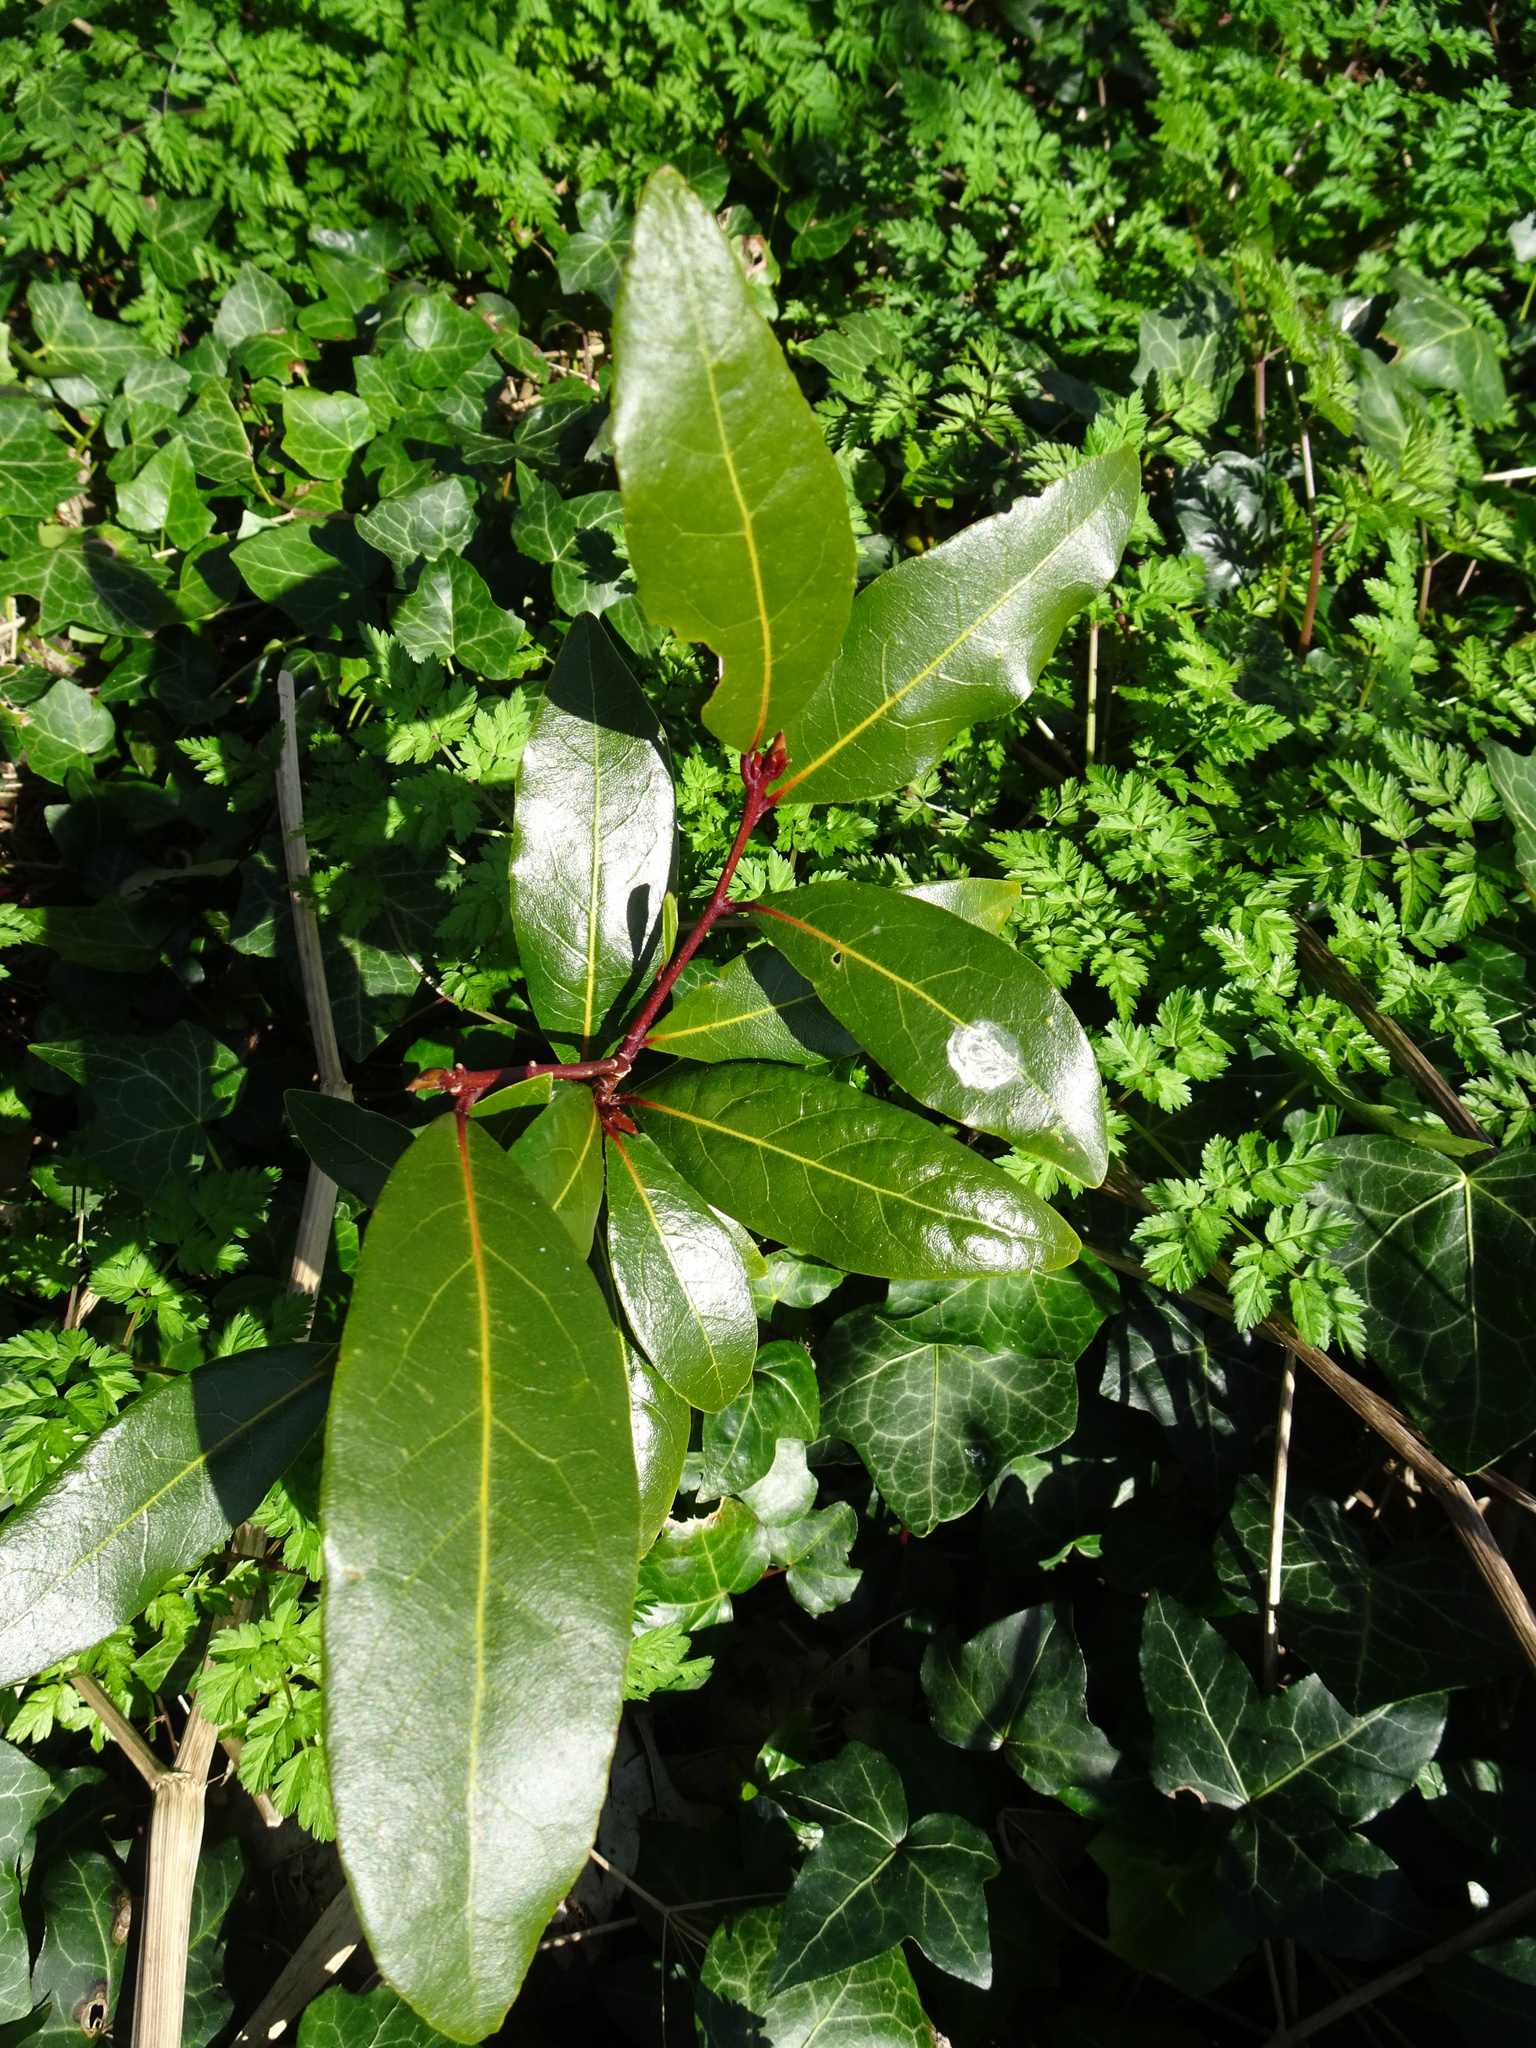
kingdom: Plantae
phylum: Tracheophyta
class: Magnoliopsida
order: Laurales
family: Lauraceae
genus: Laurus
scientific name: Laurus nobilis
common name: Bay
